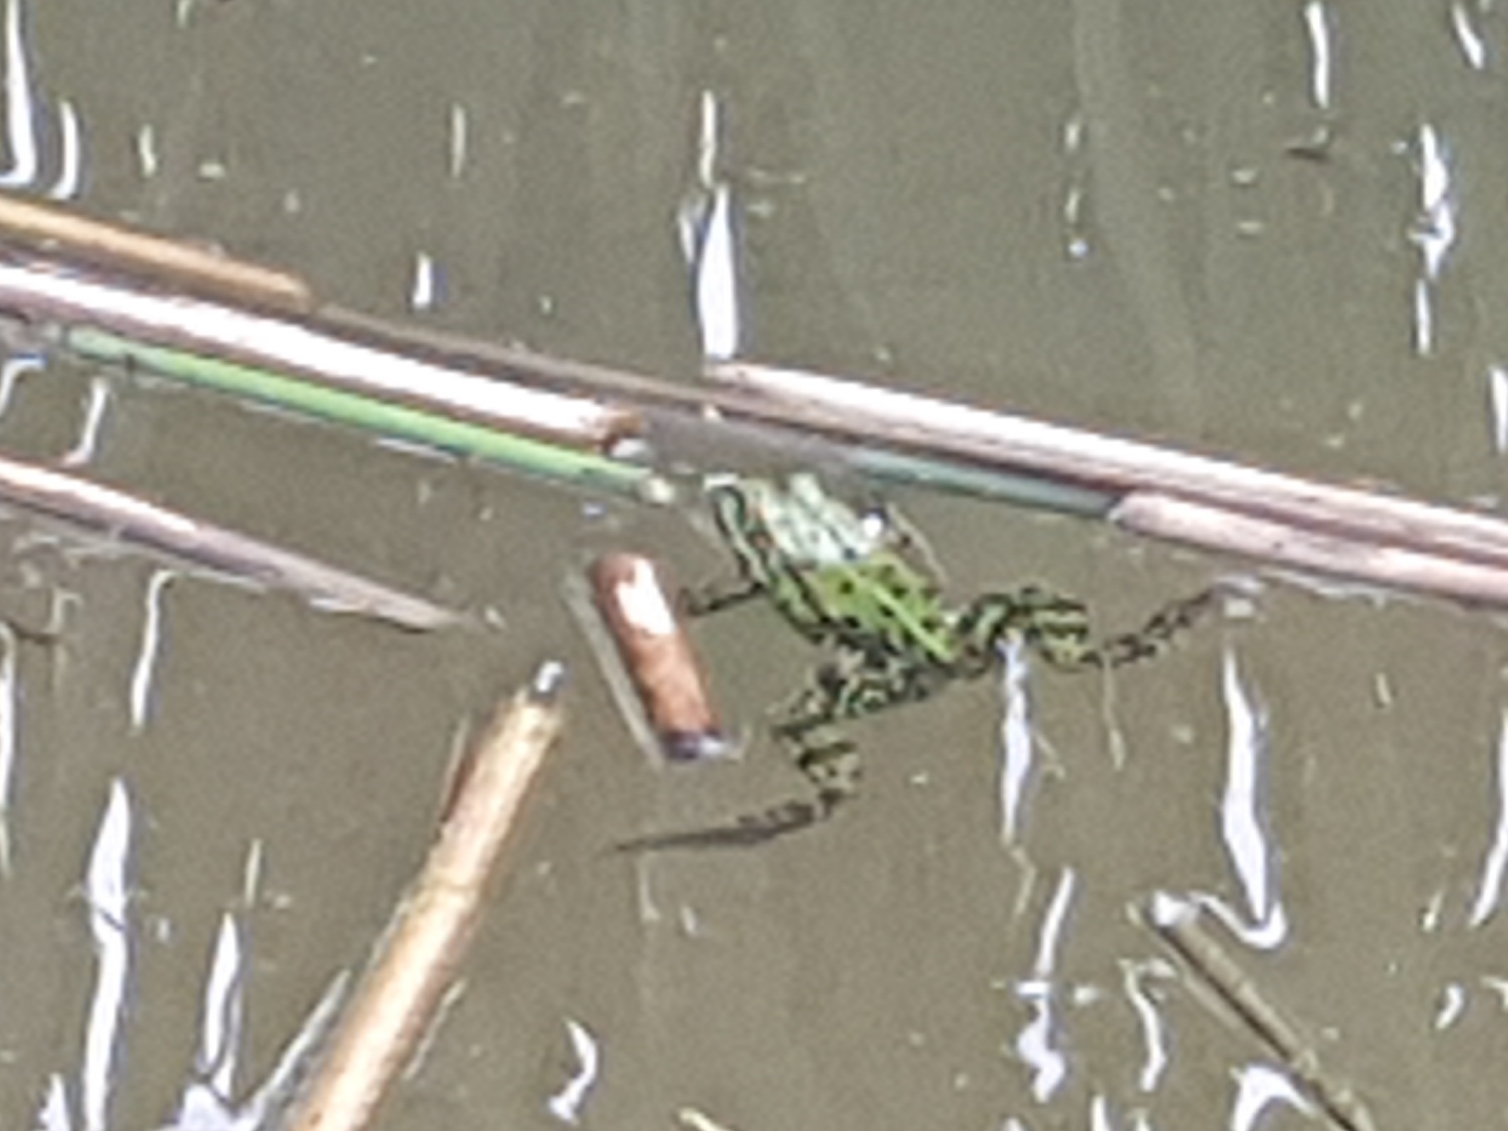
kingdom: Animalia
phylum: Chordata
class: Amphibia
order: Anura
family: Ranidae
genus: Pelophylax
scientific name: Pelophylax
